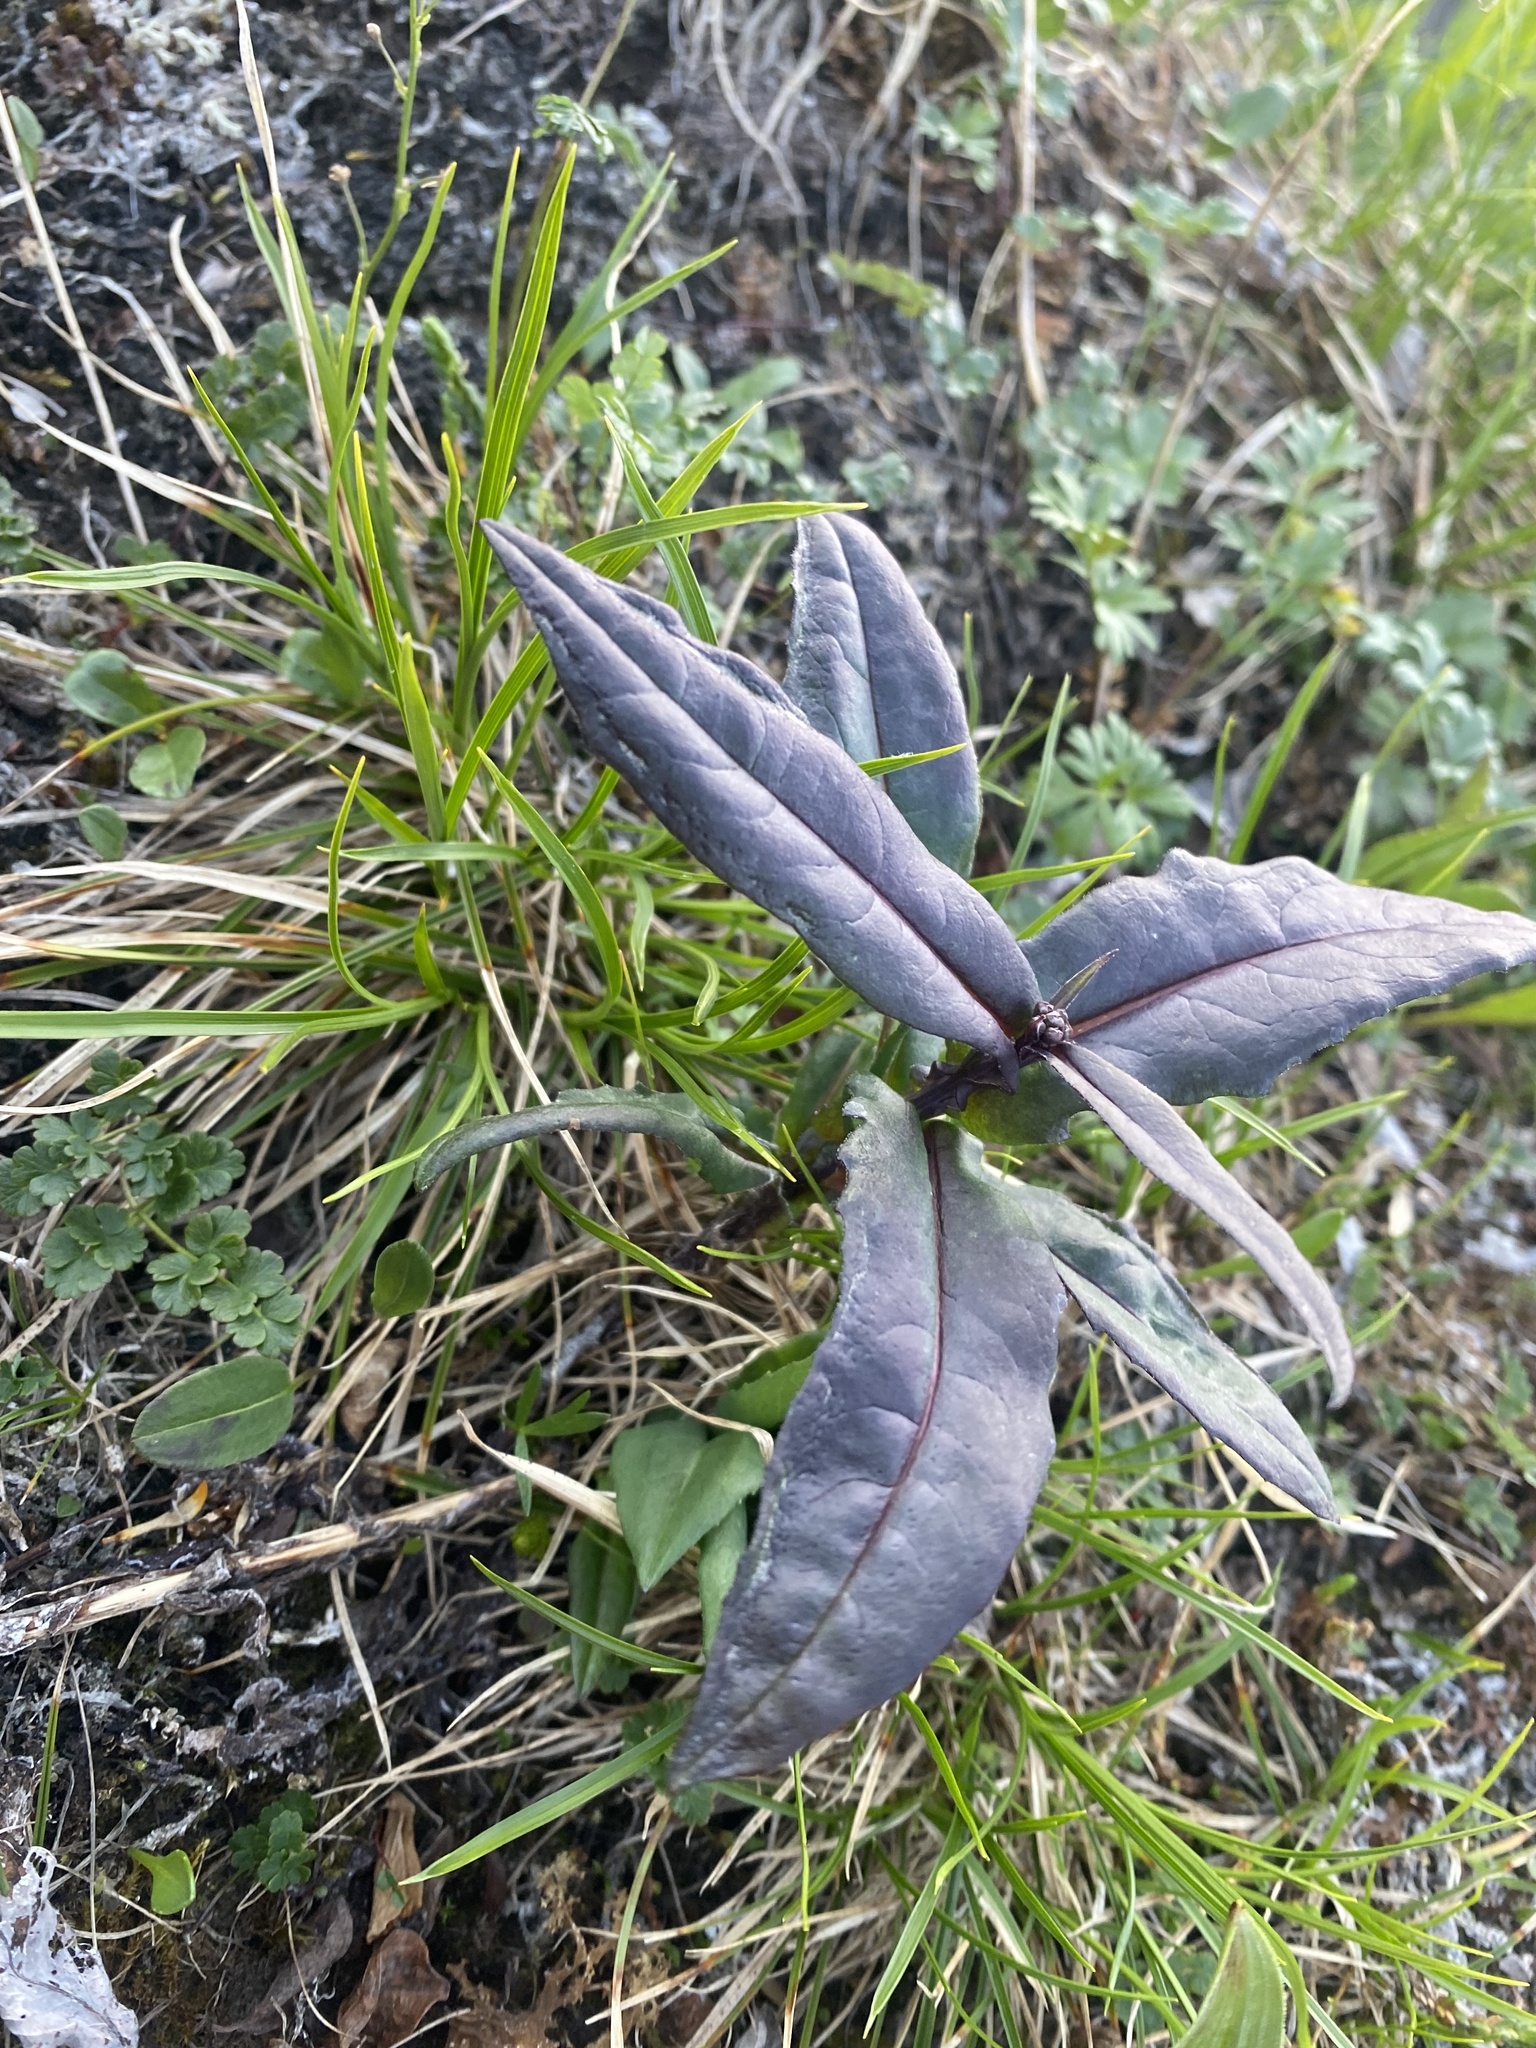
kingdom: Plantae
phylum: Tracheophyta
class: Magnoliopsida
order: Asterales
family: Asteraceae
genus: Saussurea
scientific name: Saussurea parviflora
